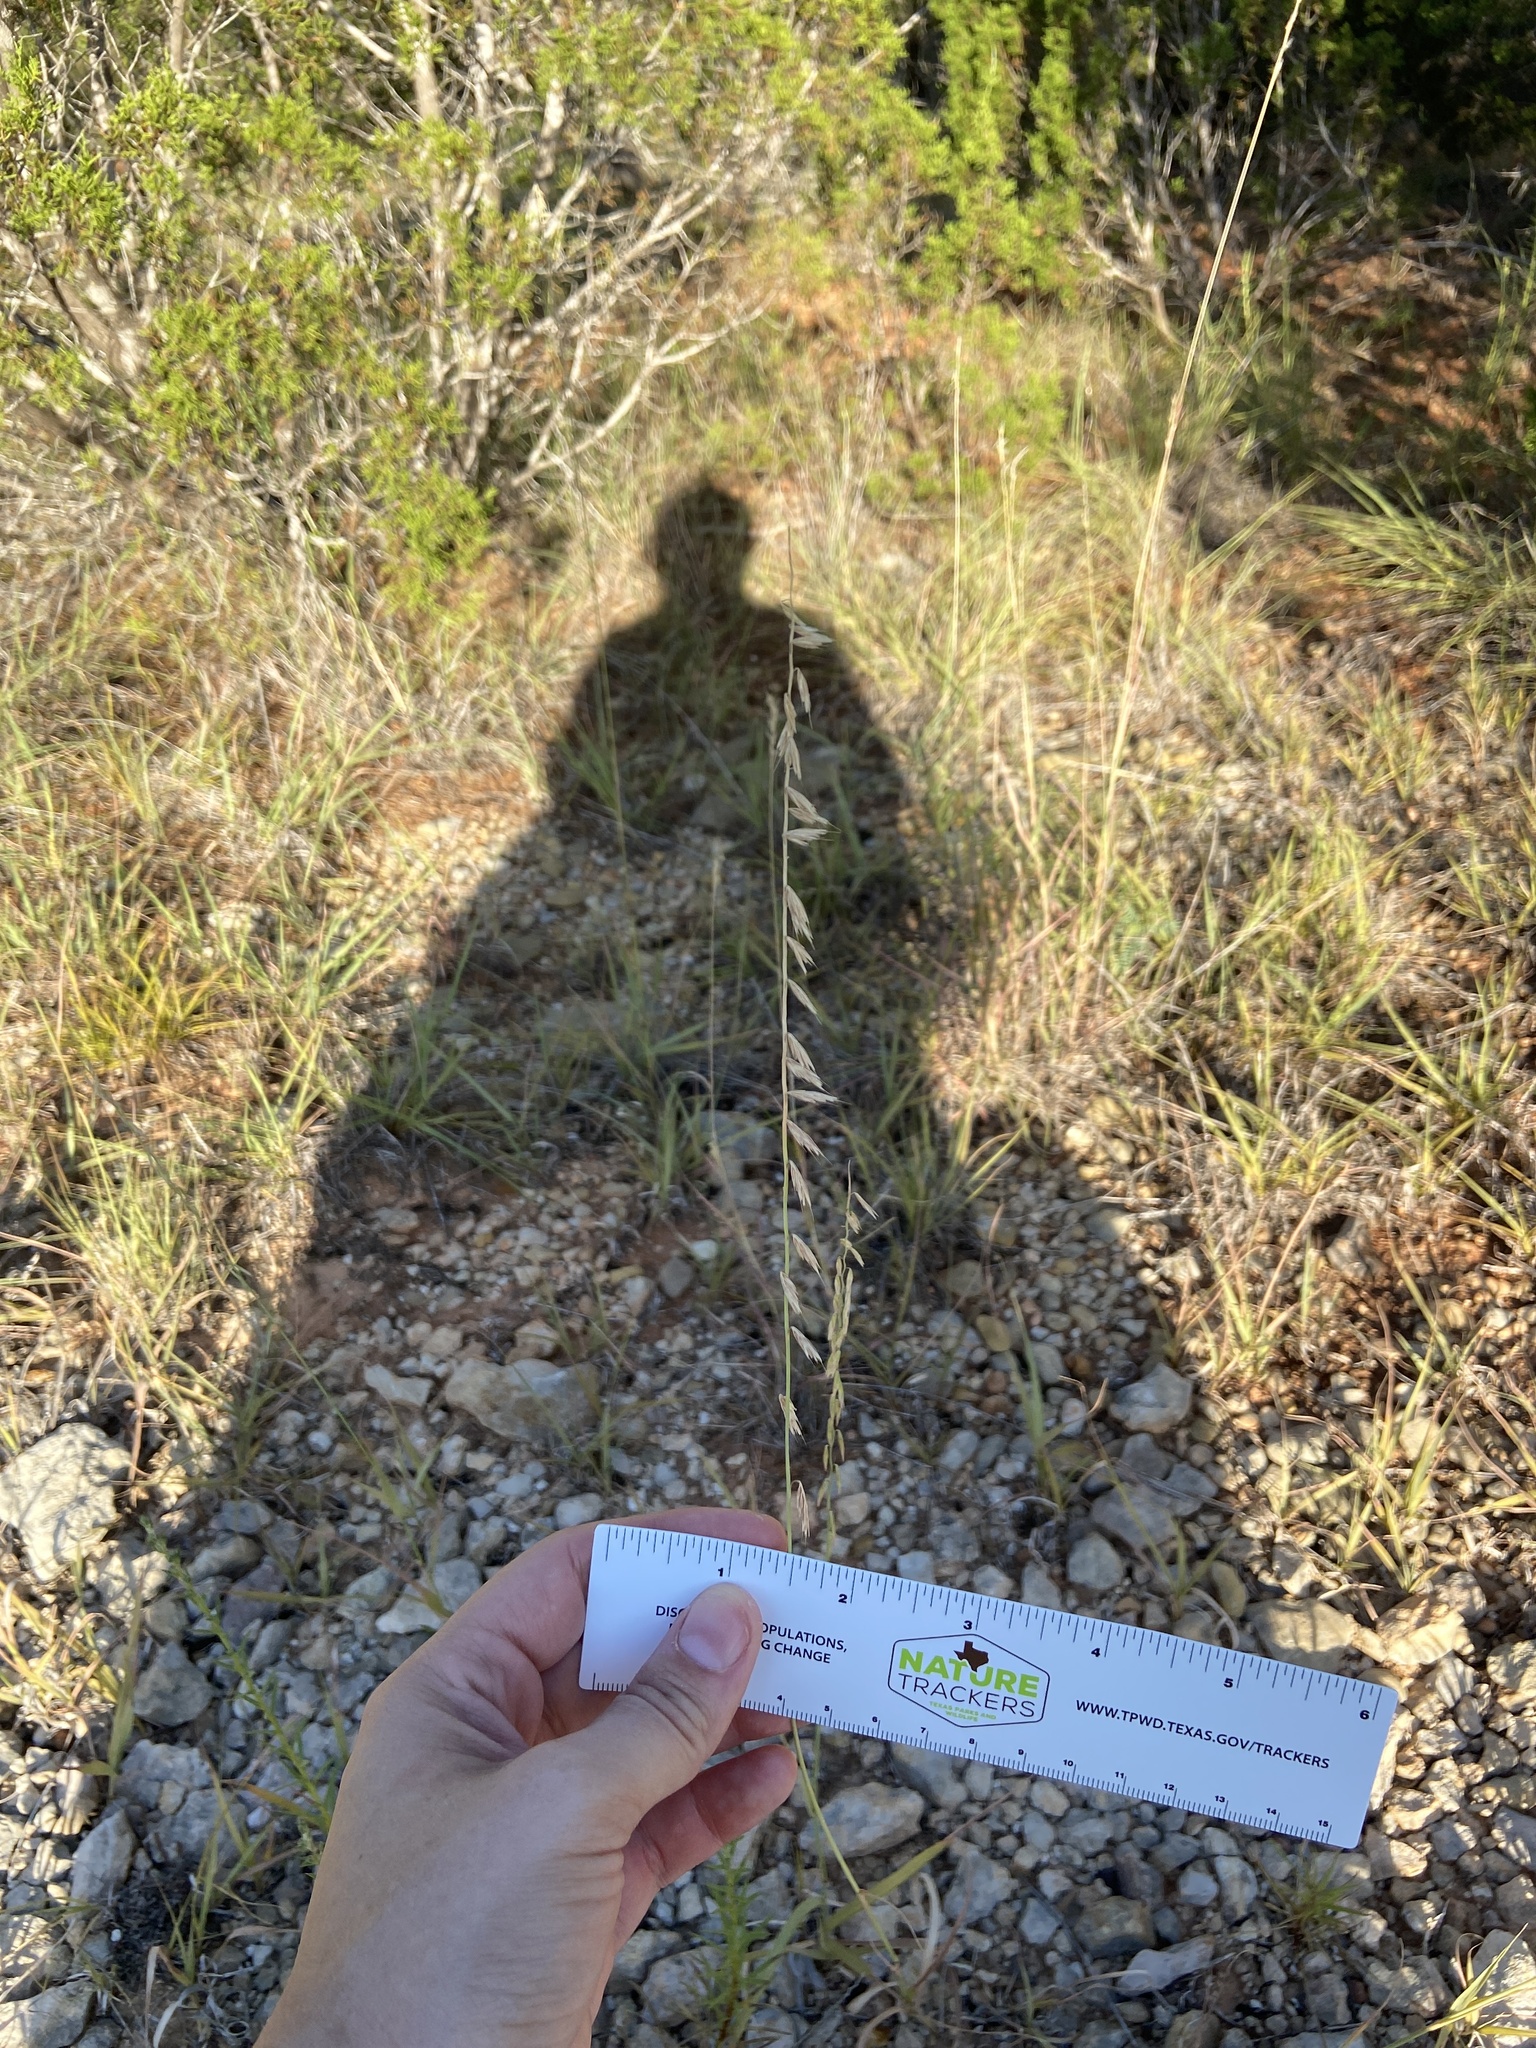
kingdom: Plantae
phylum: Tracheophyta
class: Liliopsida
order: Poales
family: Poaceae
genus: Bouteloua
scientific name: Bouteloua curtipendula
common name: Side-oats grama
